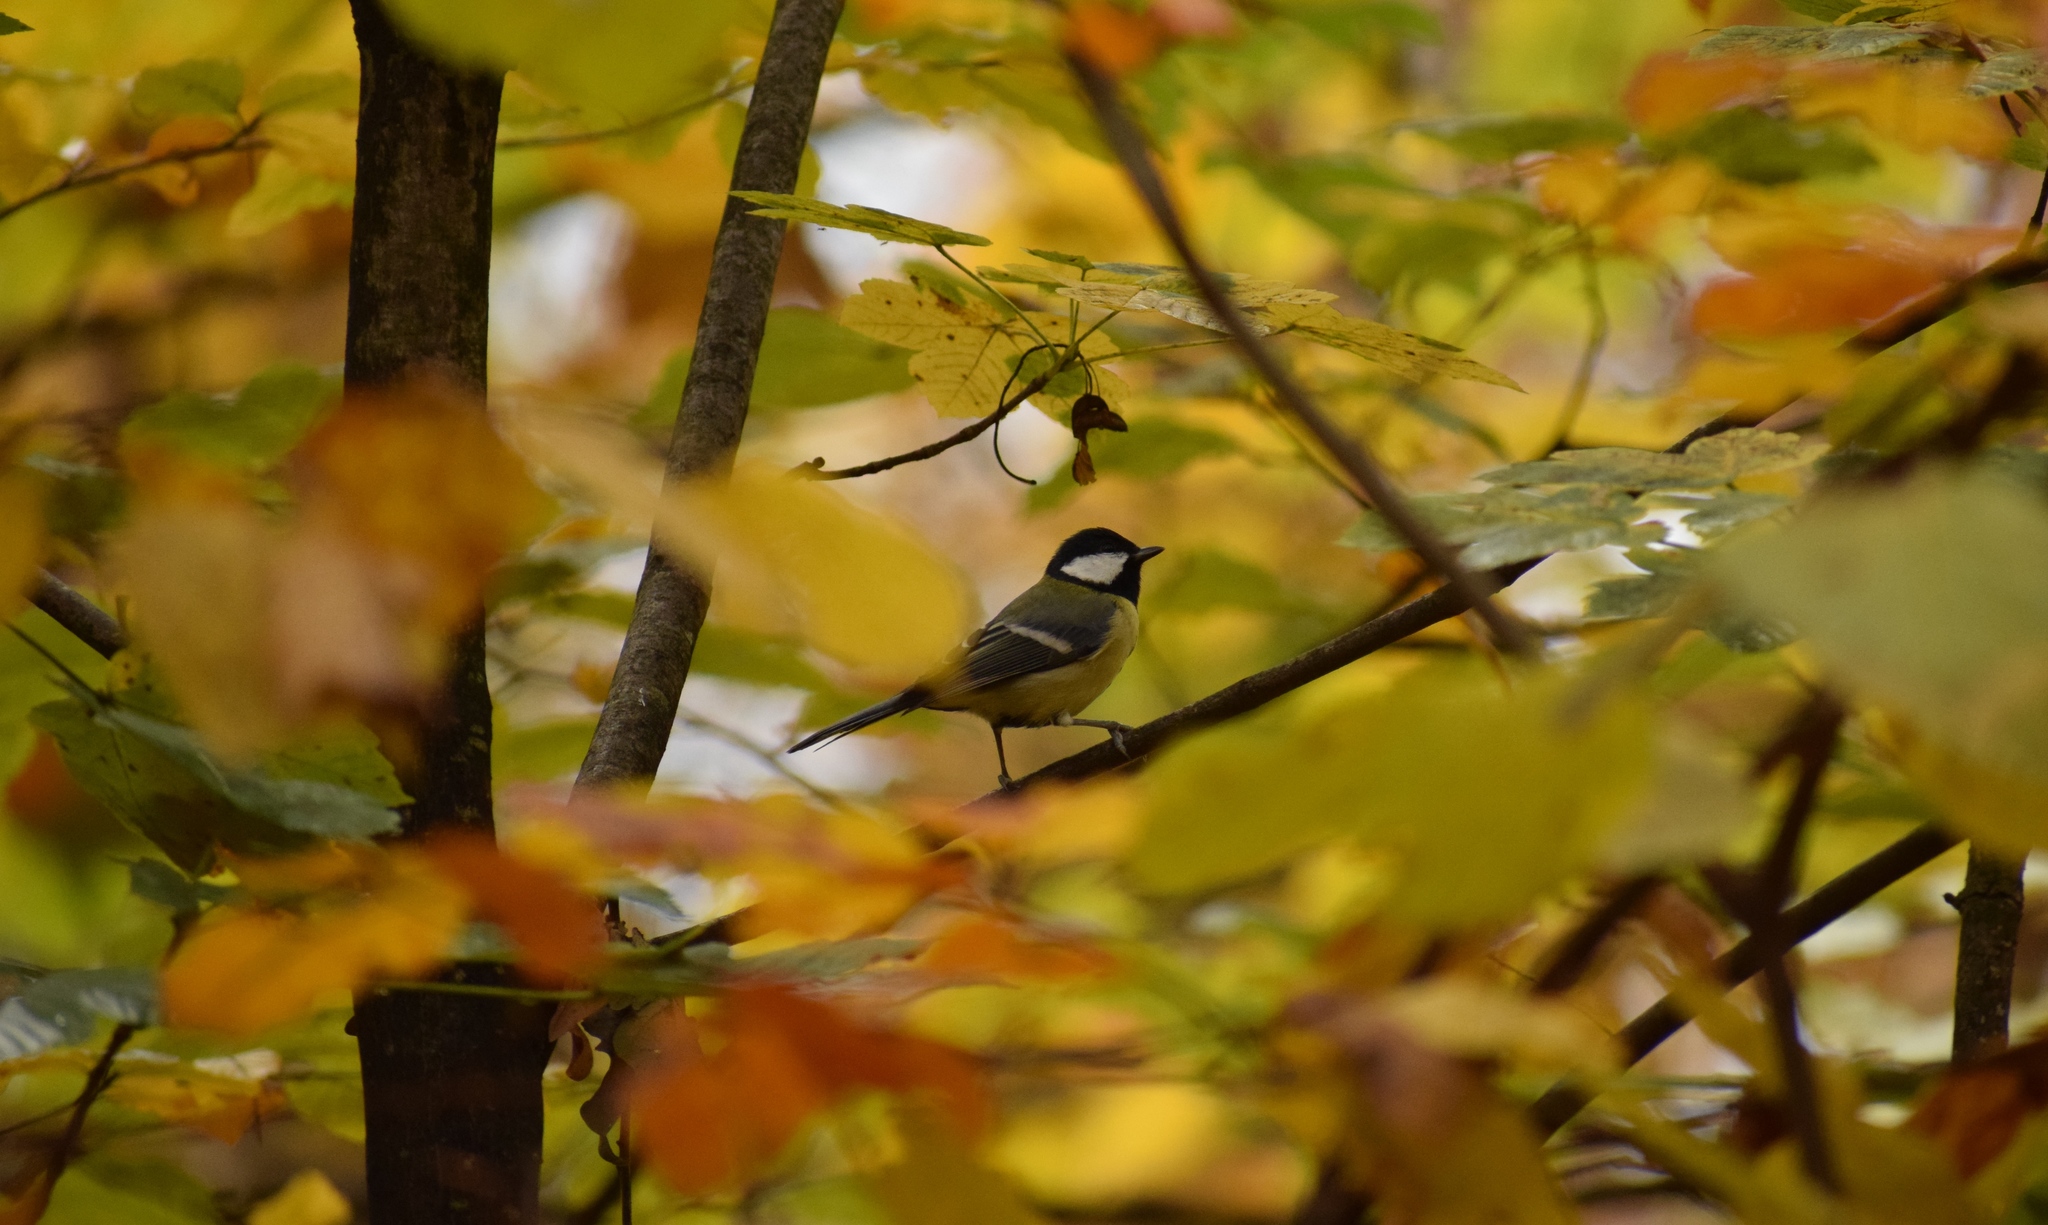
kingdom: Animalia
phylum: Chordata
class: Aves
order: Passeriformes
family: Paridae
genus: Parus
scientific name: Parus major
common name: Great tit
